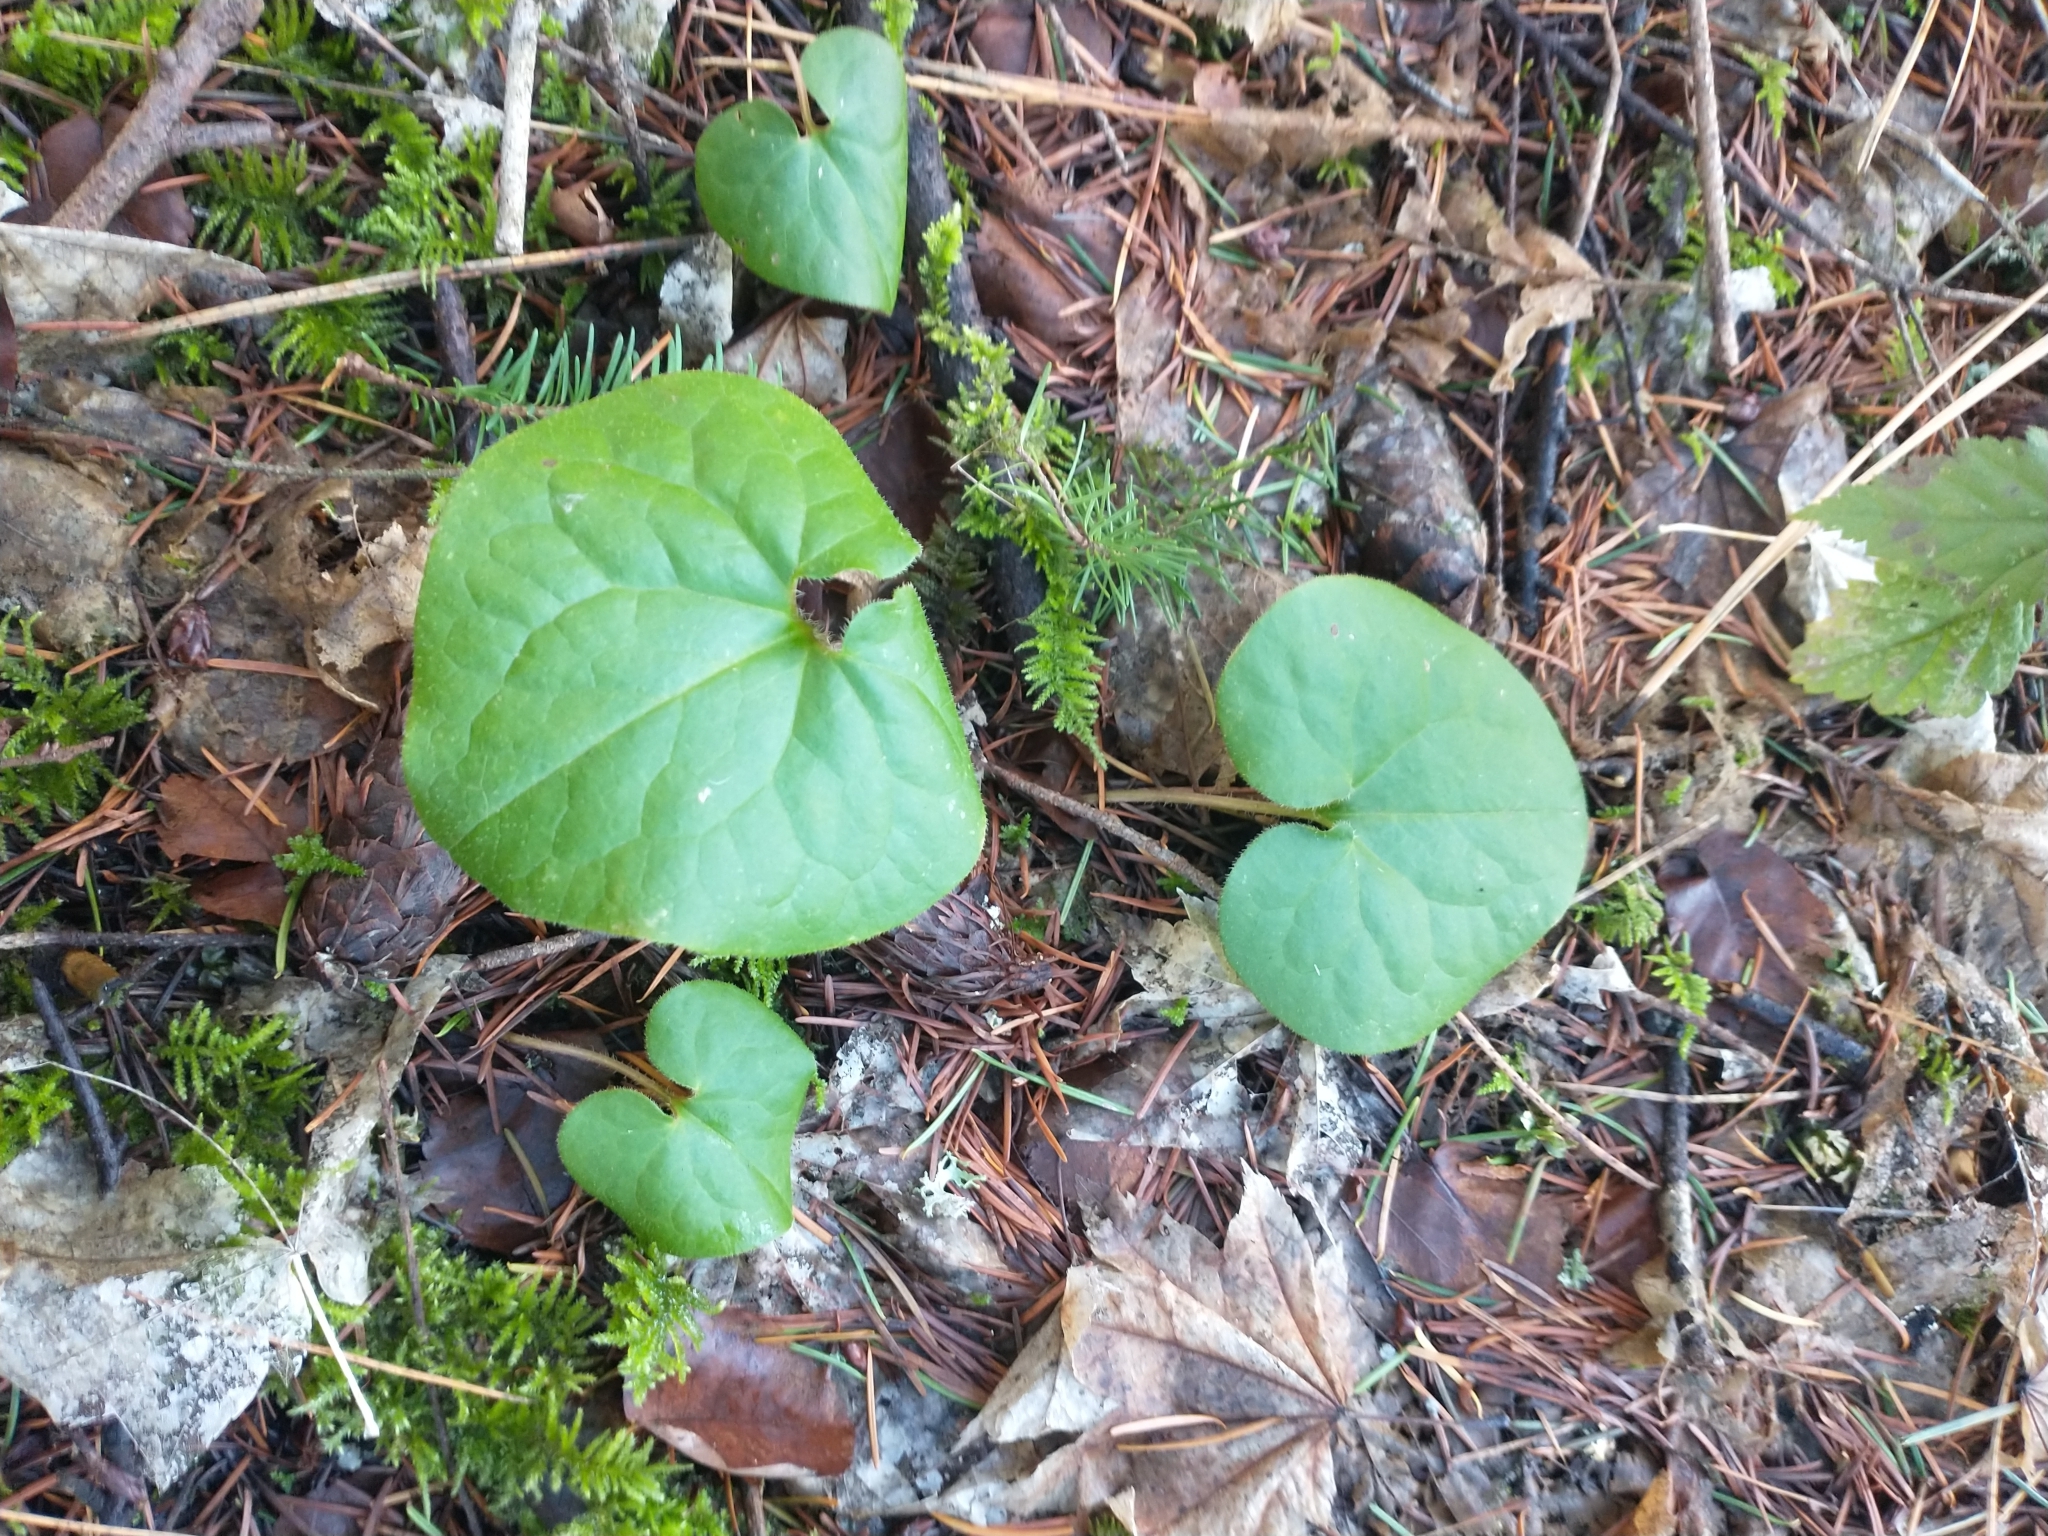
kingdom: Plantae
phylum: Tracheophyta
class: Magnoliopsida
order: Piperales
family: Aristolochiaceae
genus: Asarum
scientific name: Asarum caudatum
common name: Wild ginger
